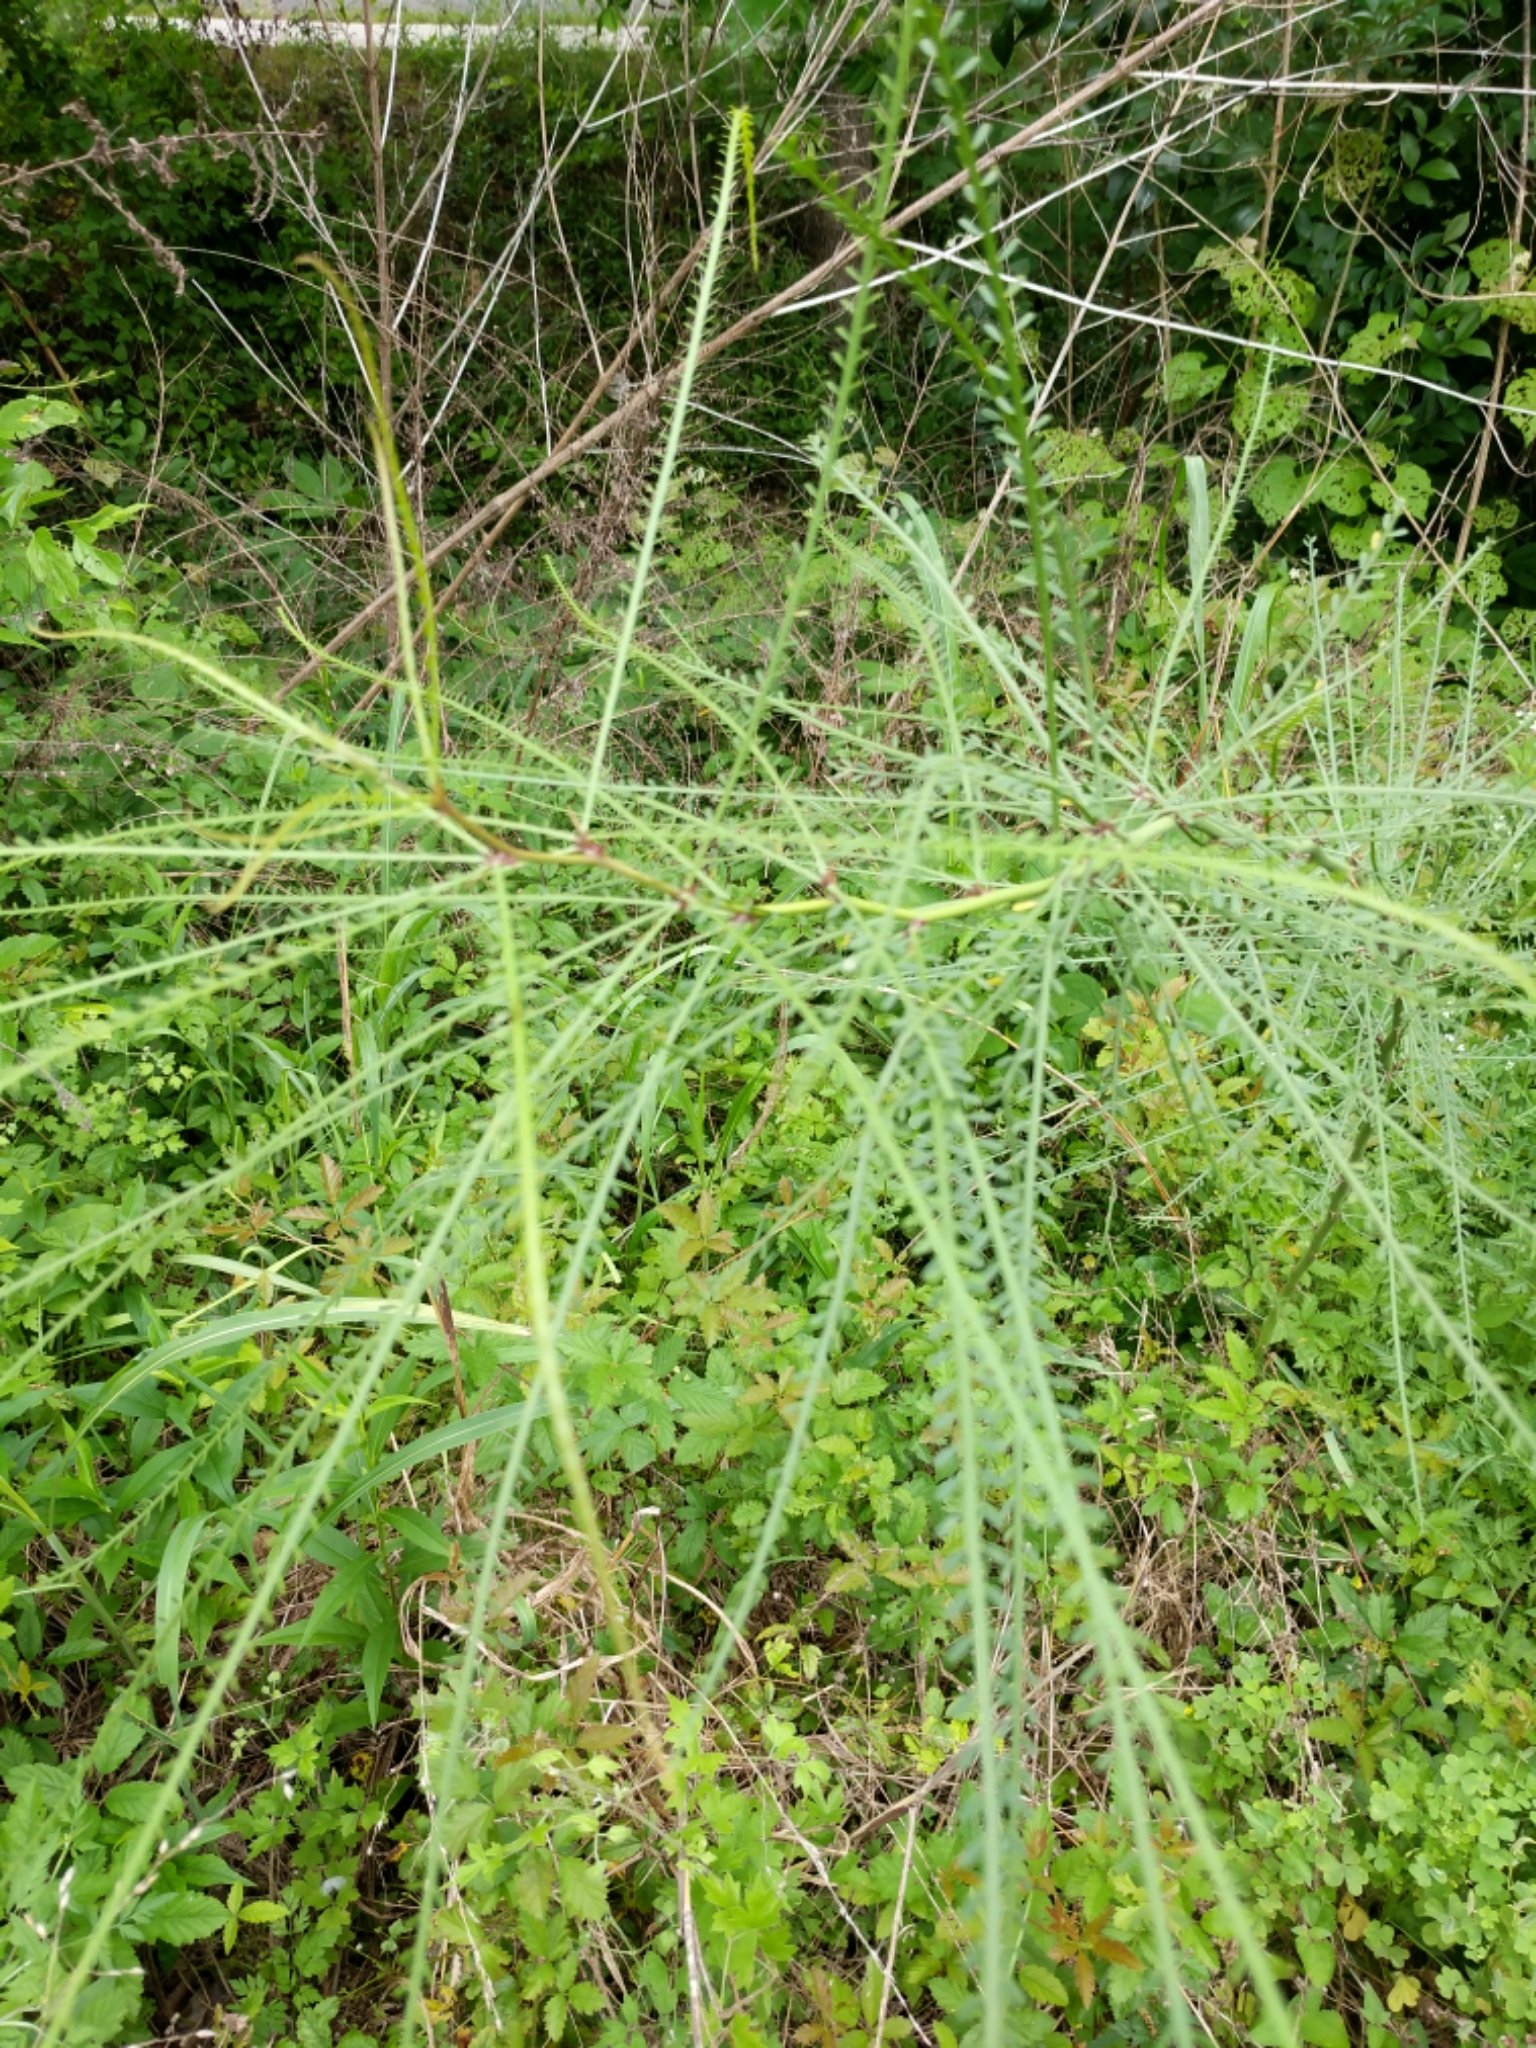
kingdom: Plantae
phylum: Tracheophyta
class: Magnoliopsida
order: Fabales
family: Fabaceae
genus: Parkinsonia
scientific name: Parkinsonia aculeata
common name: Jerusalem thorn
